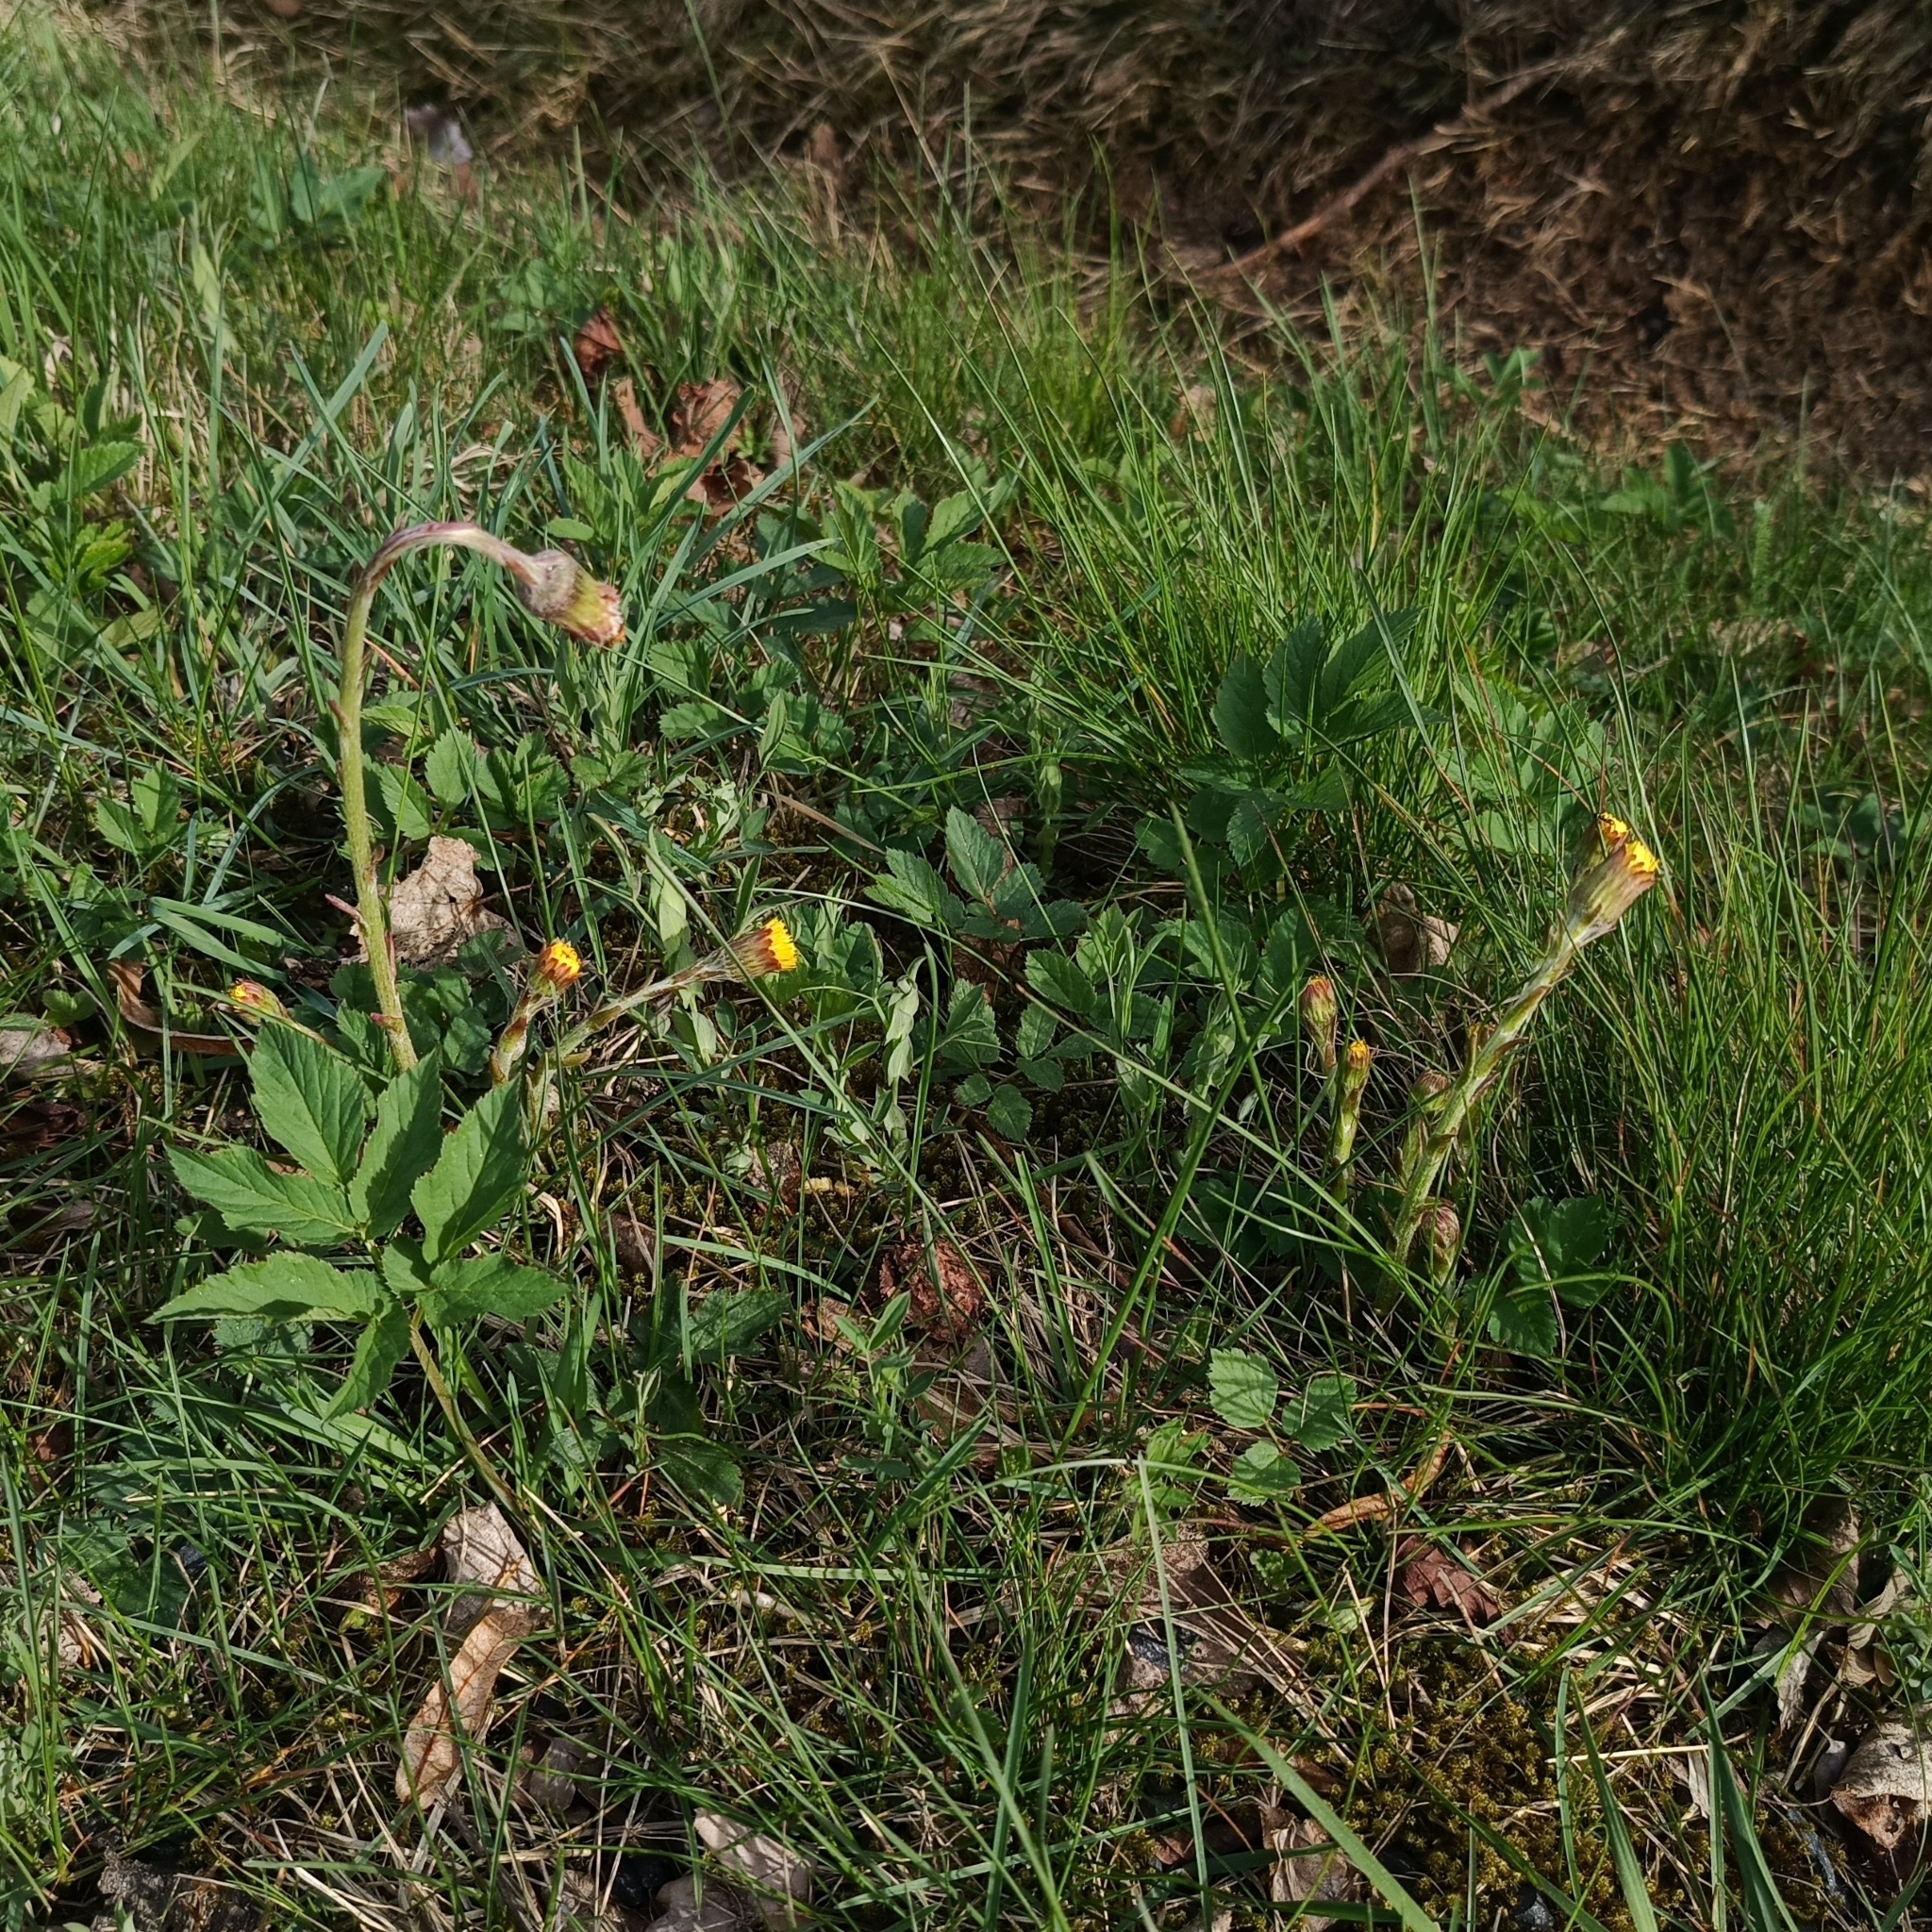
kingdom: Plantae
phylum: Tracheophyta
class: Magnoliopsida
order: Asterales
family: Asteraceae
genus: Tussilago
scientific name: Tussilago farfara
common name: Coltsfoot
